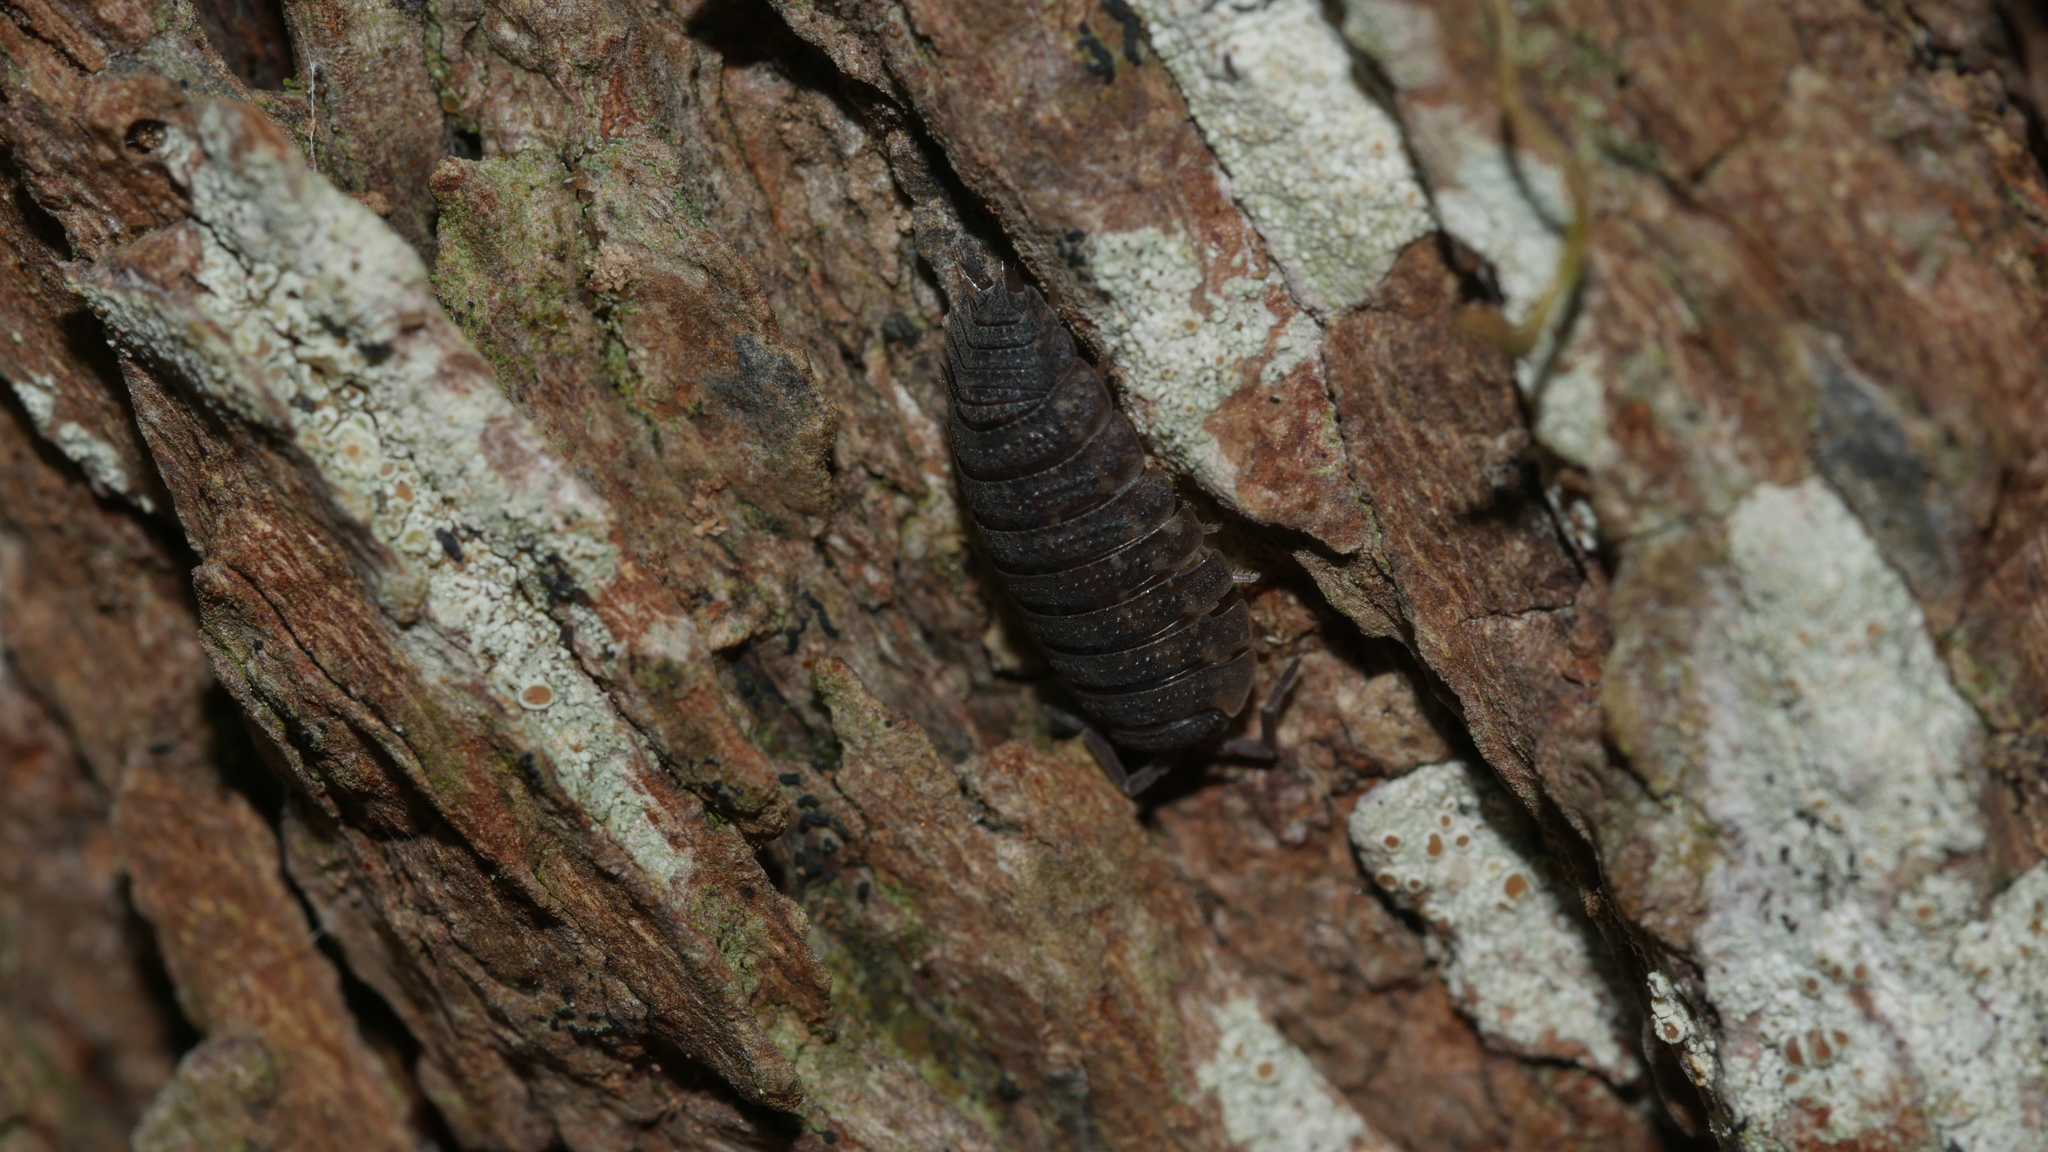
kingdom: Animalia
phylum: Arthropoda
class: Malacostraca
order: Isopoda
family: Porcellionidae
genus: Porcellio
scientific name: Porcellio scaber
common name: Common rough woodlouse
